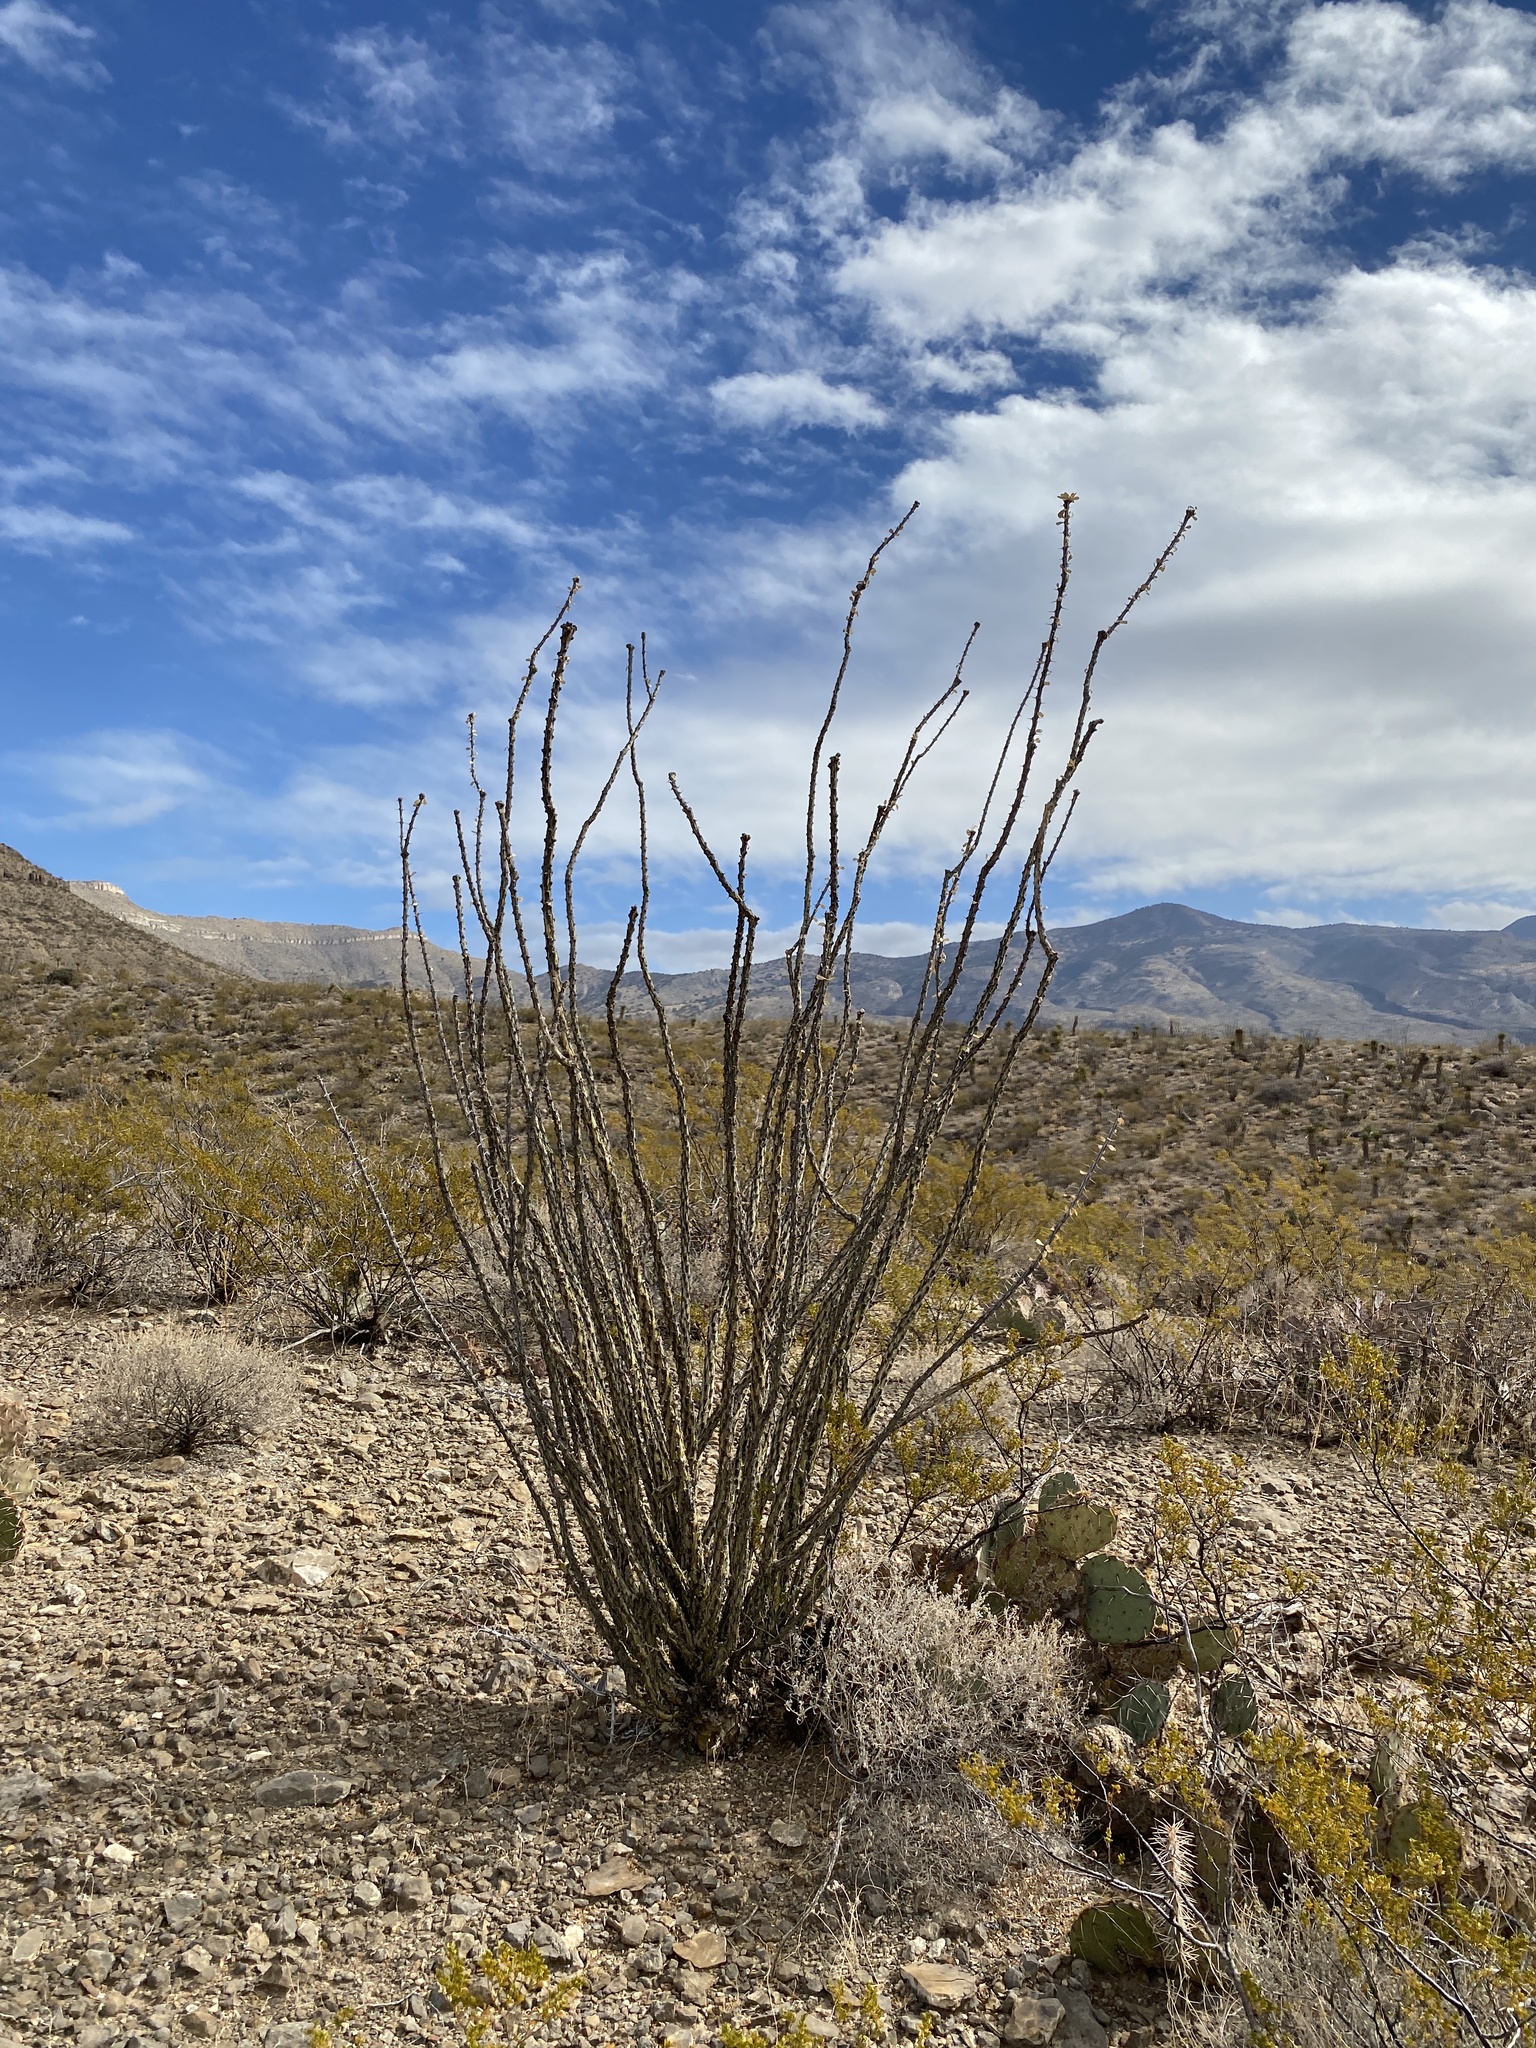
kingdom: Plantae
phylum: Tracheophyta
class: Magnoliopsida
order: Ericales
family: Fouquieriaceae
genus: Fouquieria
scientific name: Fouquieria splendens
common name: Vine-cactus
